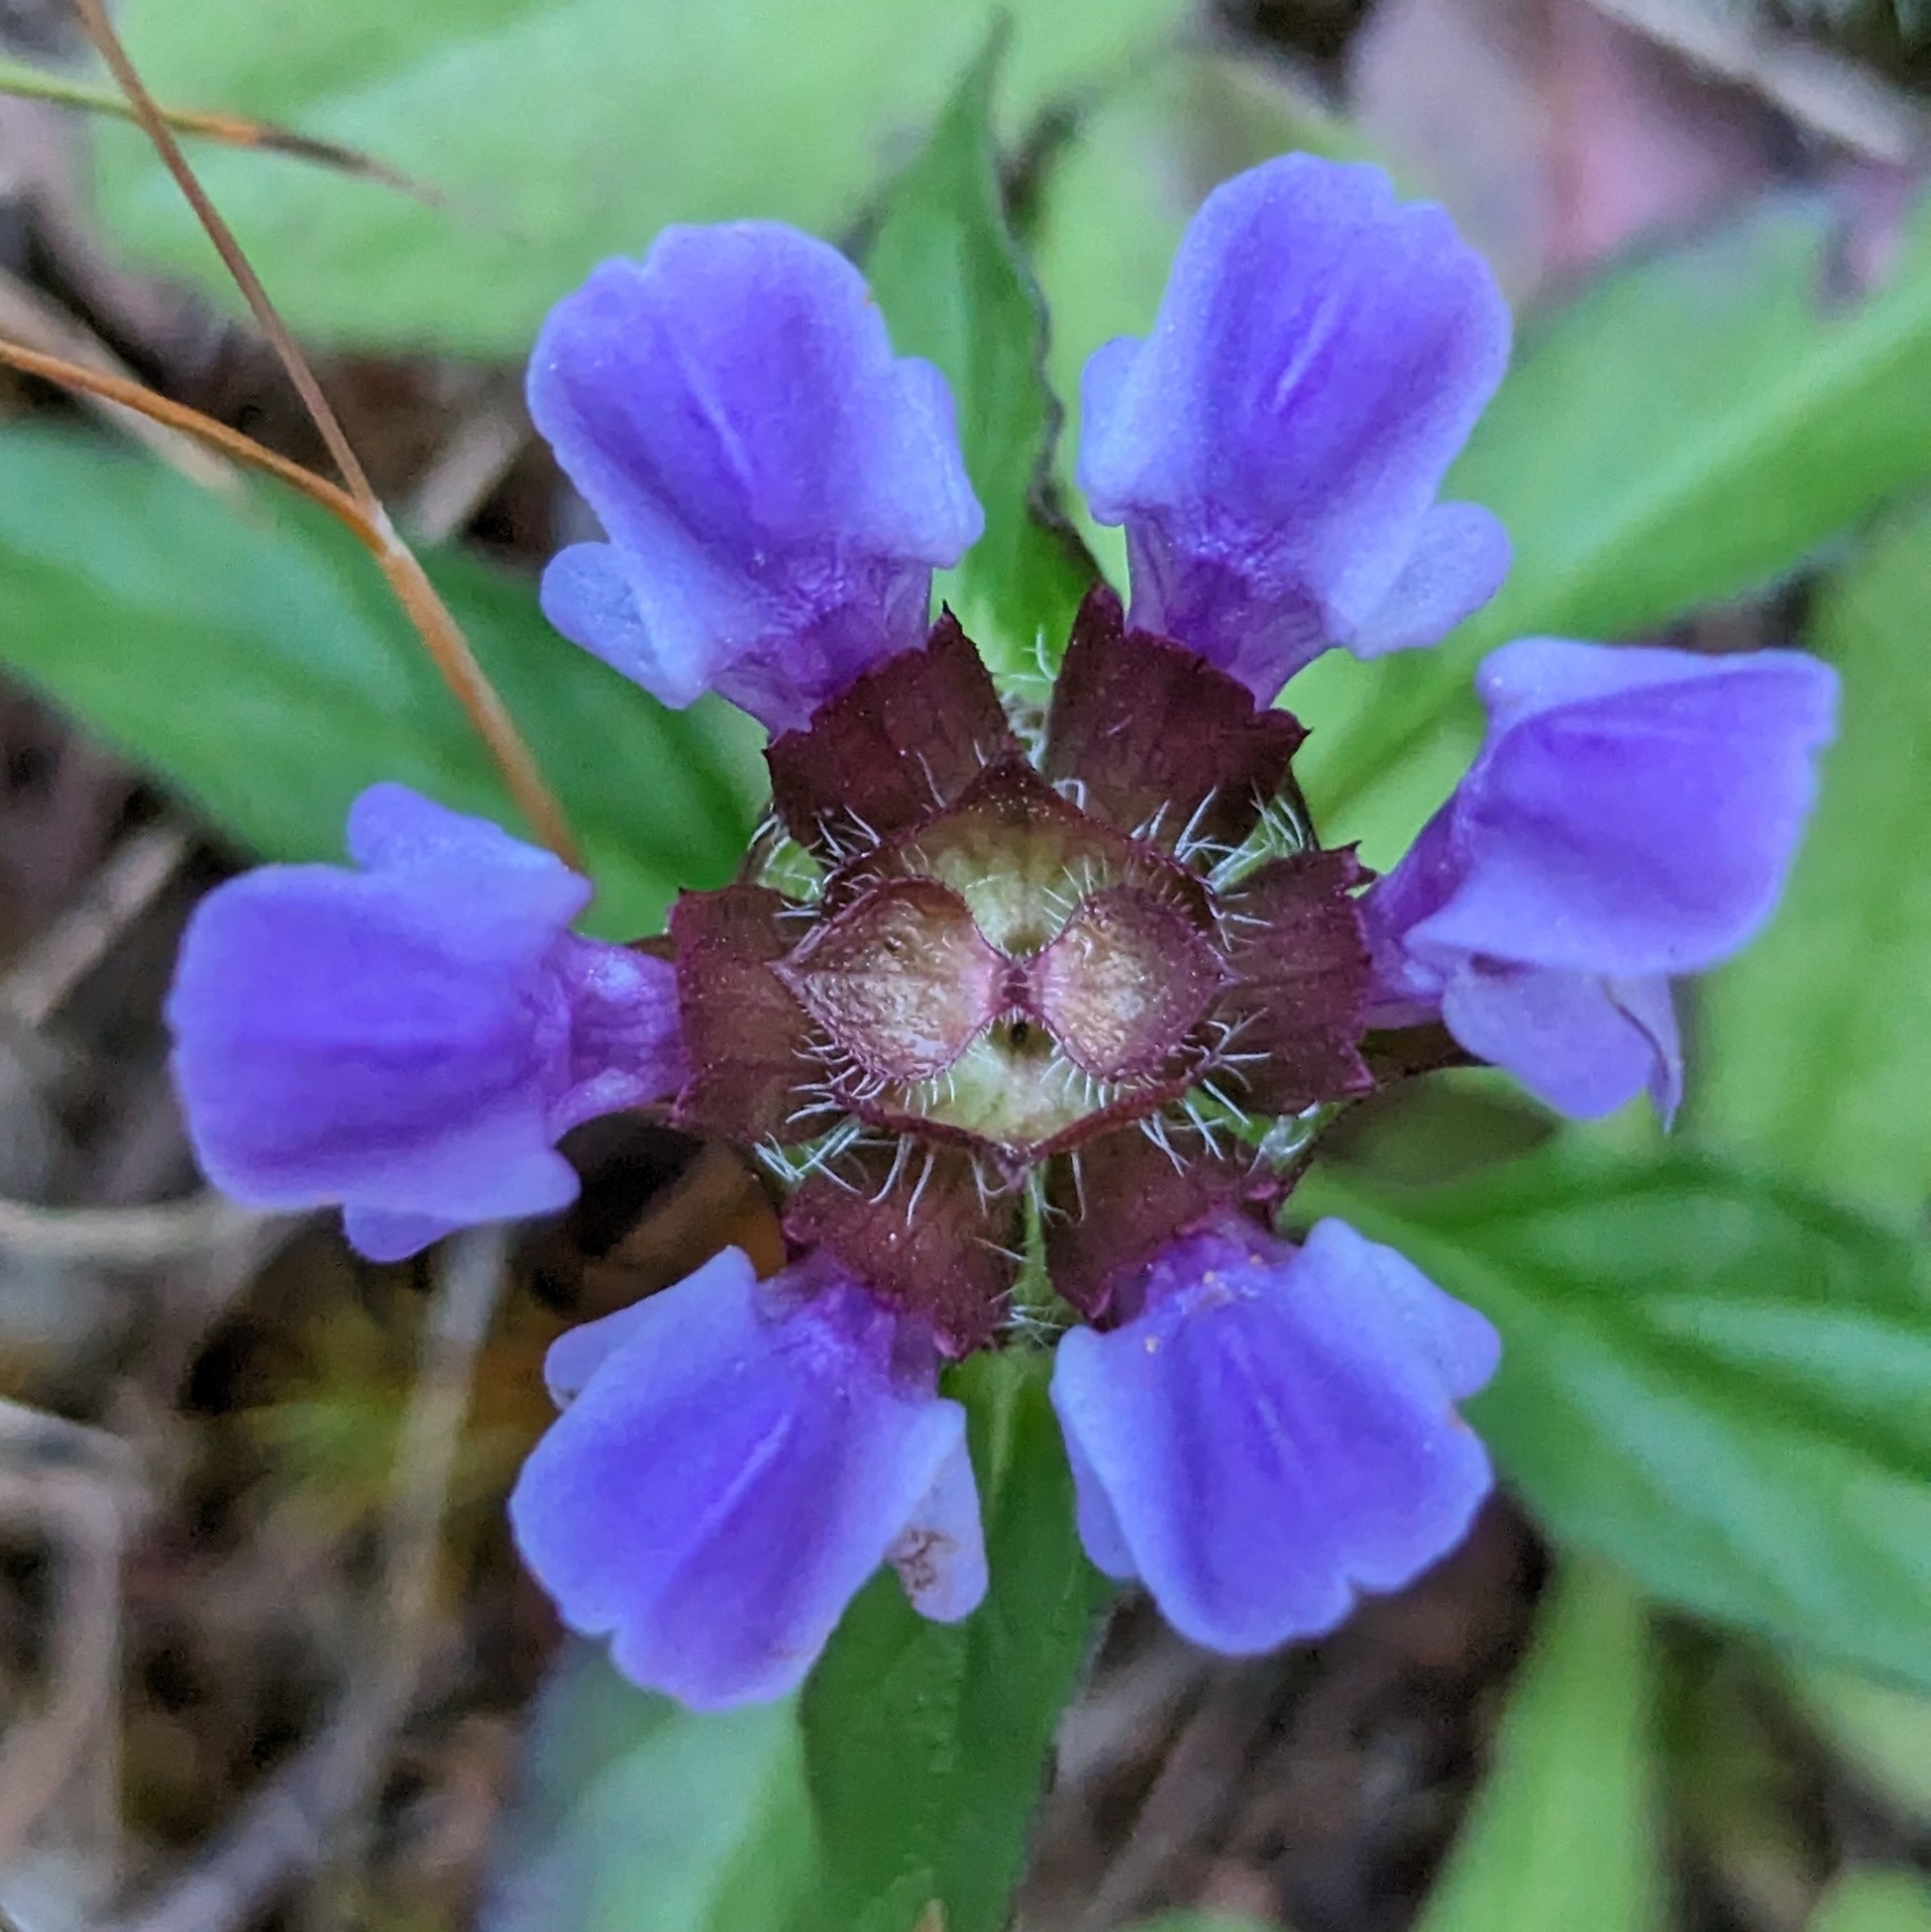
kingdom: Plantae
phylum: Tracheophyta
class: Magnoliopsida
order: Lamiales
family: Lamiaceae
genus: Prunella
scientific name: Prunella vulgaris
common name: Heal-all
